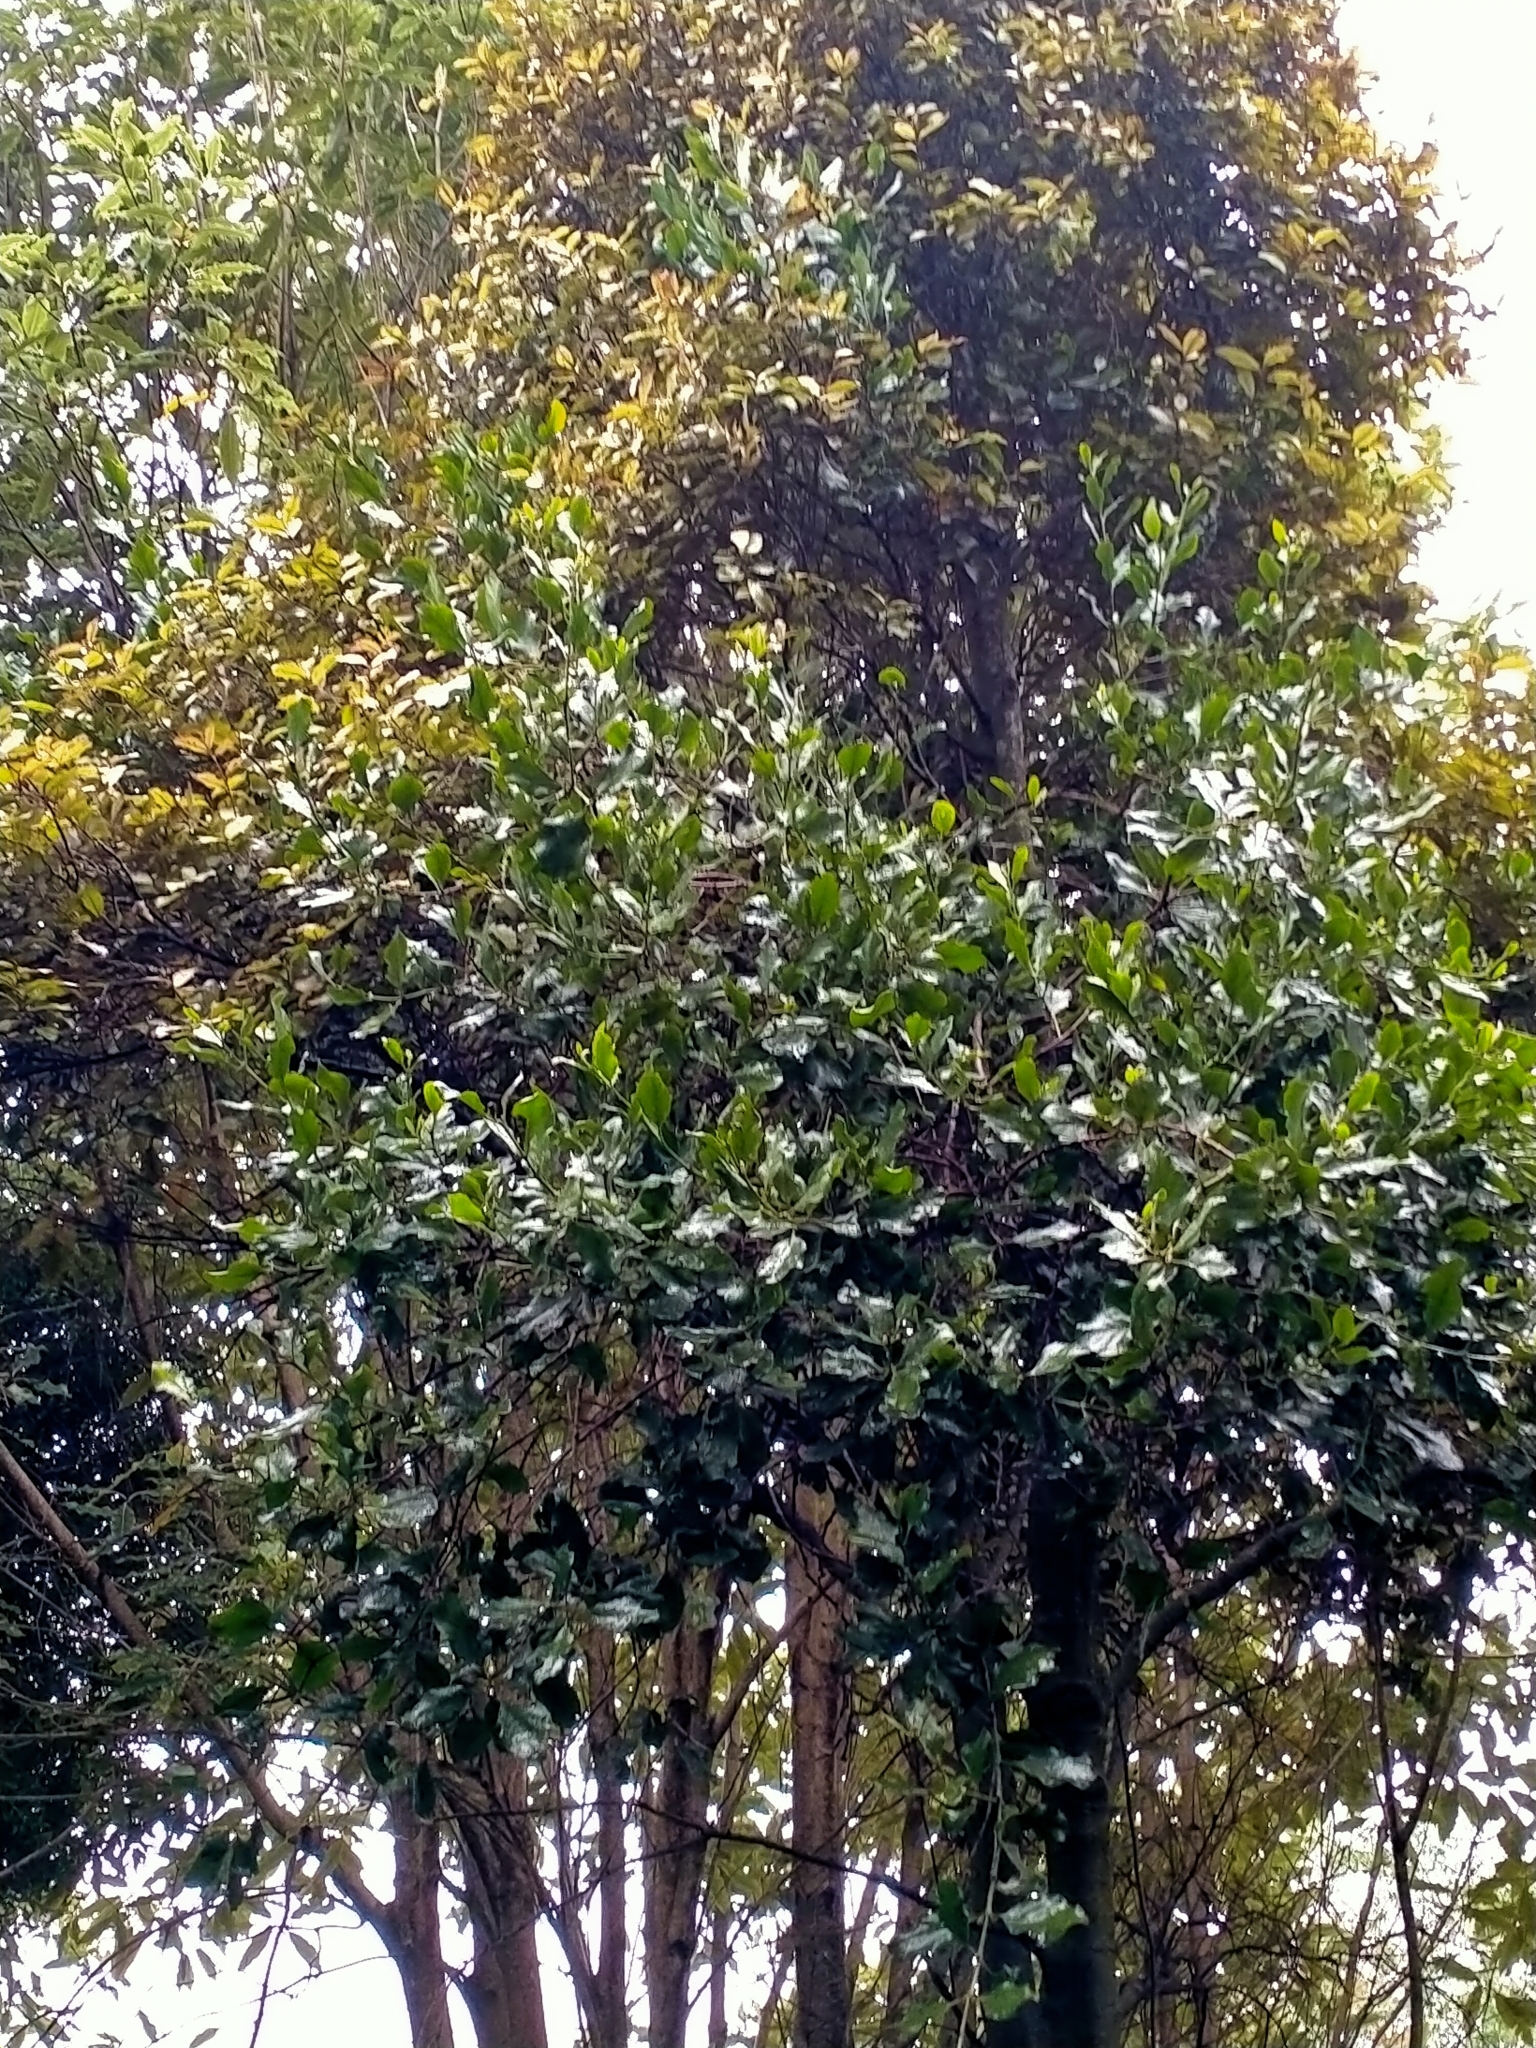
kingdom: Plantae
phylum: Tracheophyta
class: Magnoliopsida
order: Santalales
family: Loranthaceae
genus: Ileostylus
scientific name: Ileostylus micranthus
